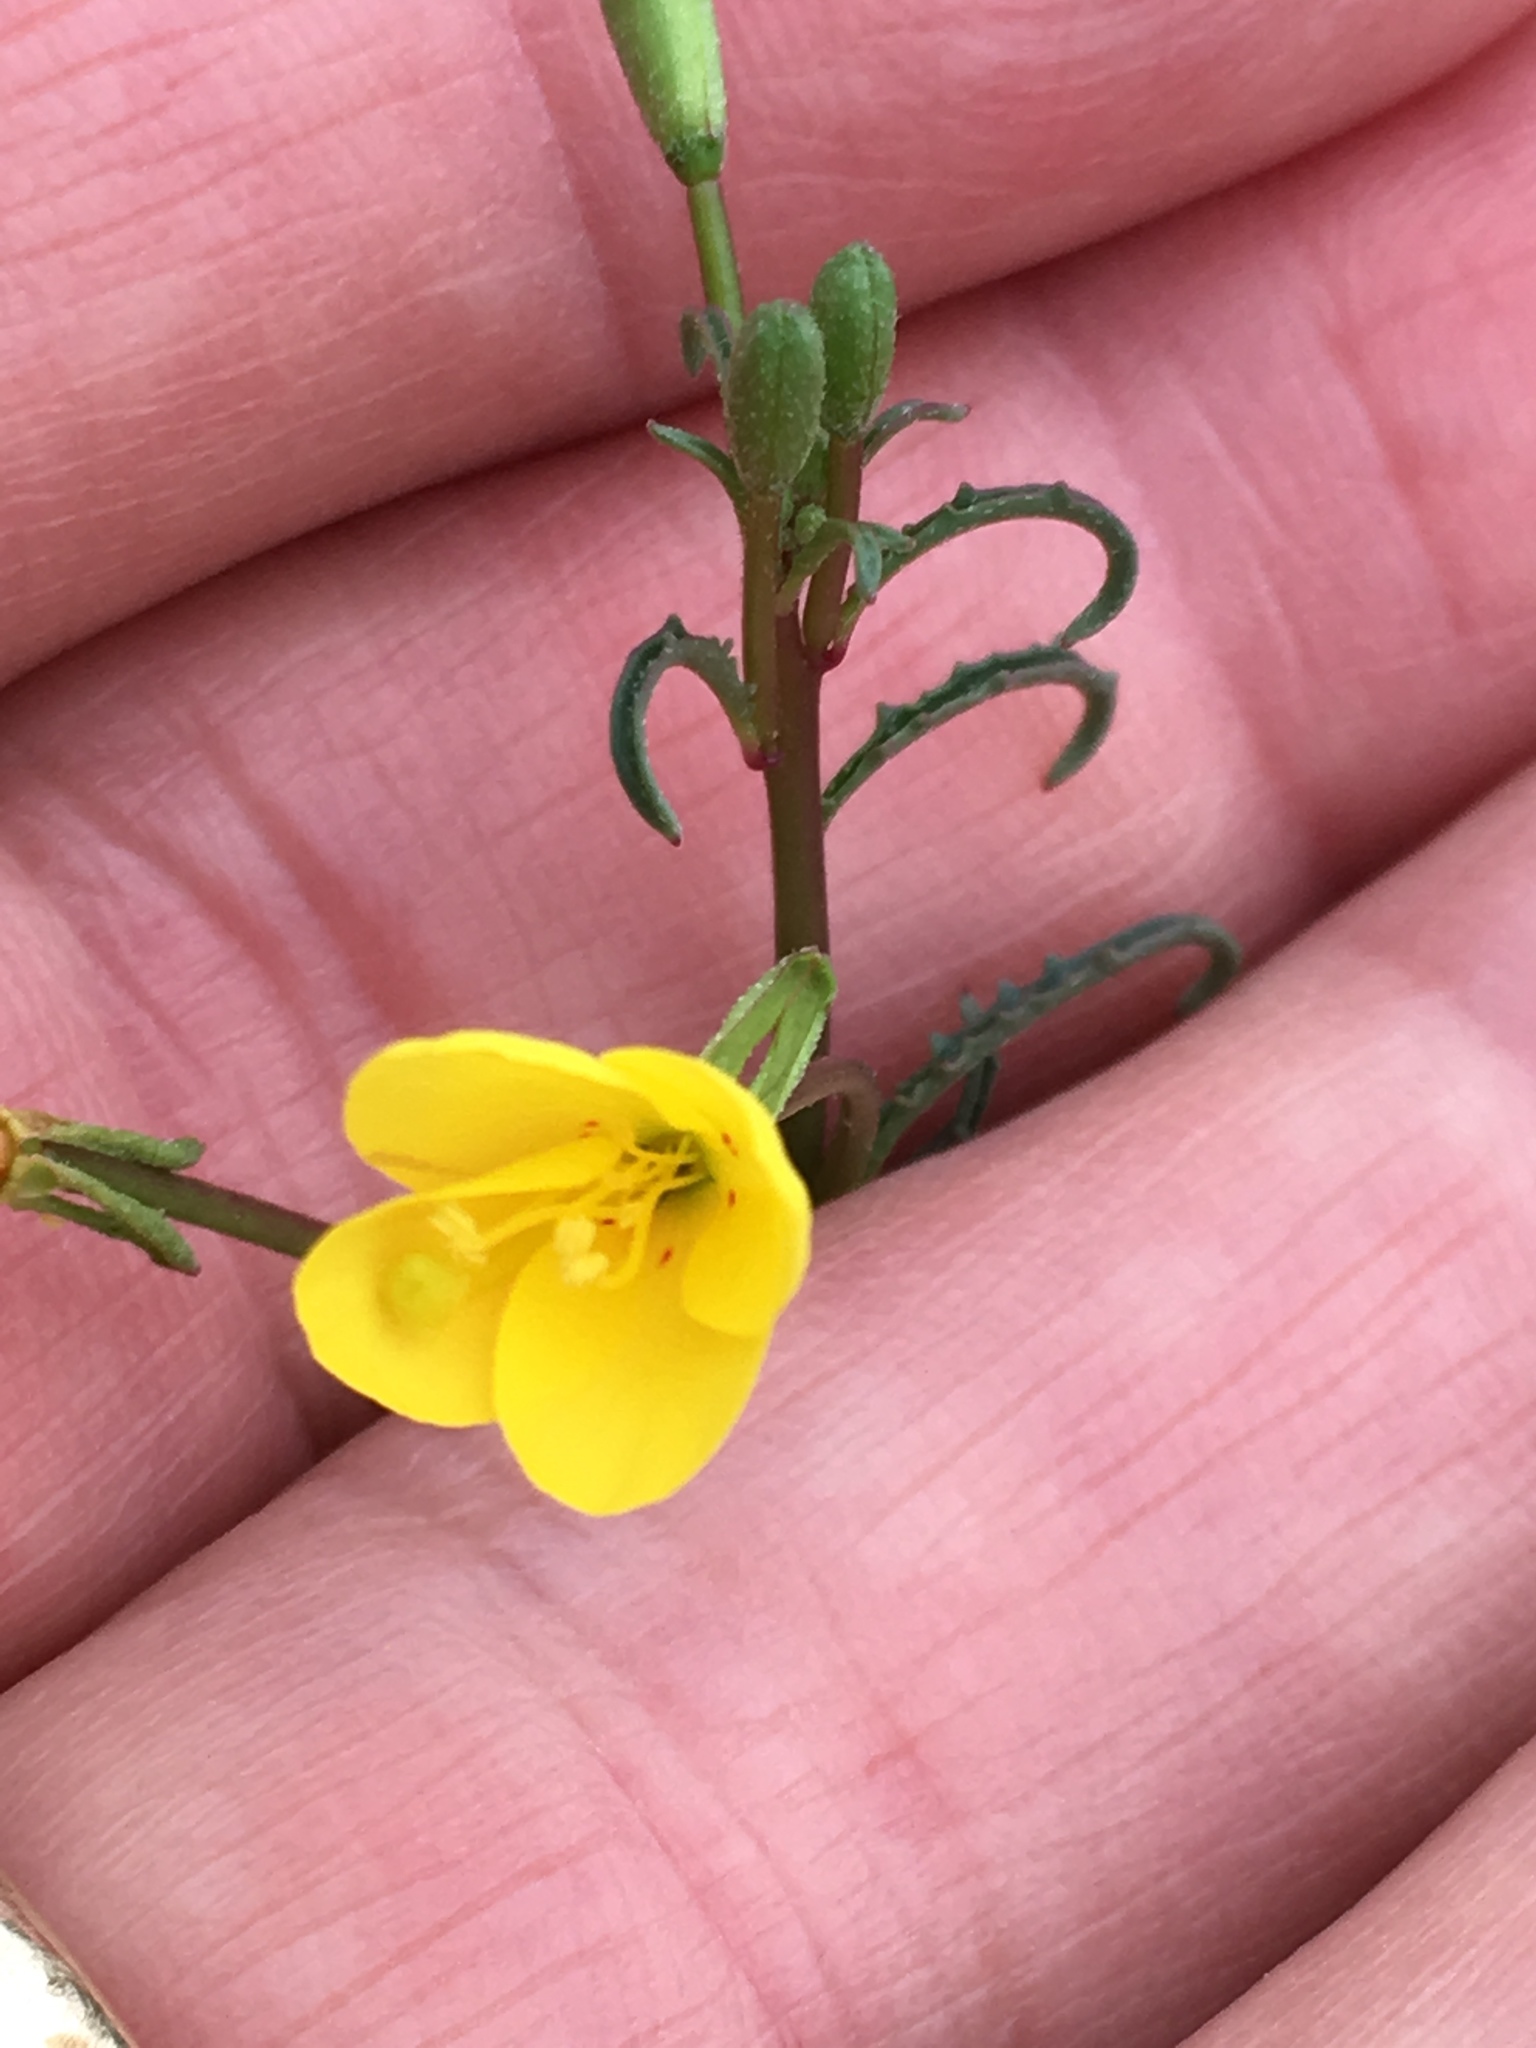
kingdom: Plantae
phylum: Tracheophyta
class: Magnoliopsida
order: Myrtales
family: Onagraceae
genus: Eulobus
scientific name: Eulobus californicus
